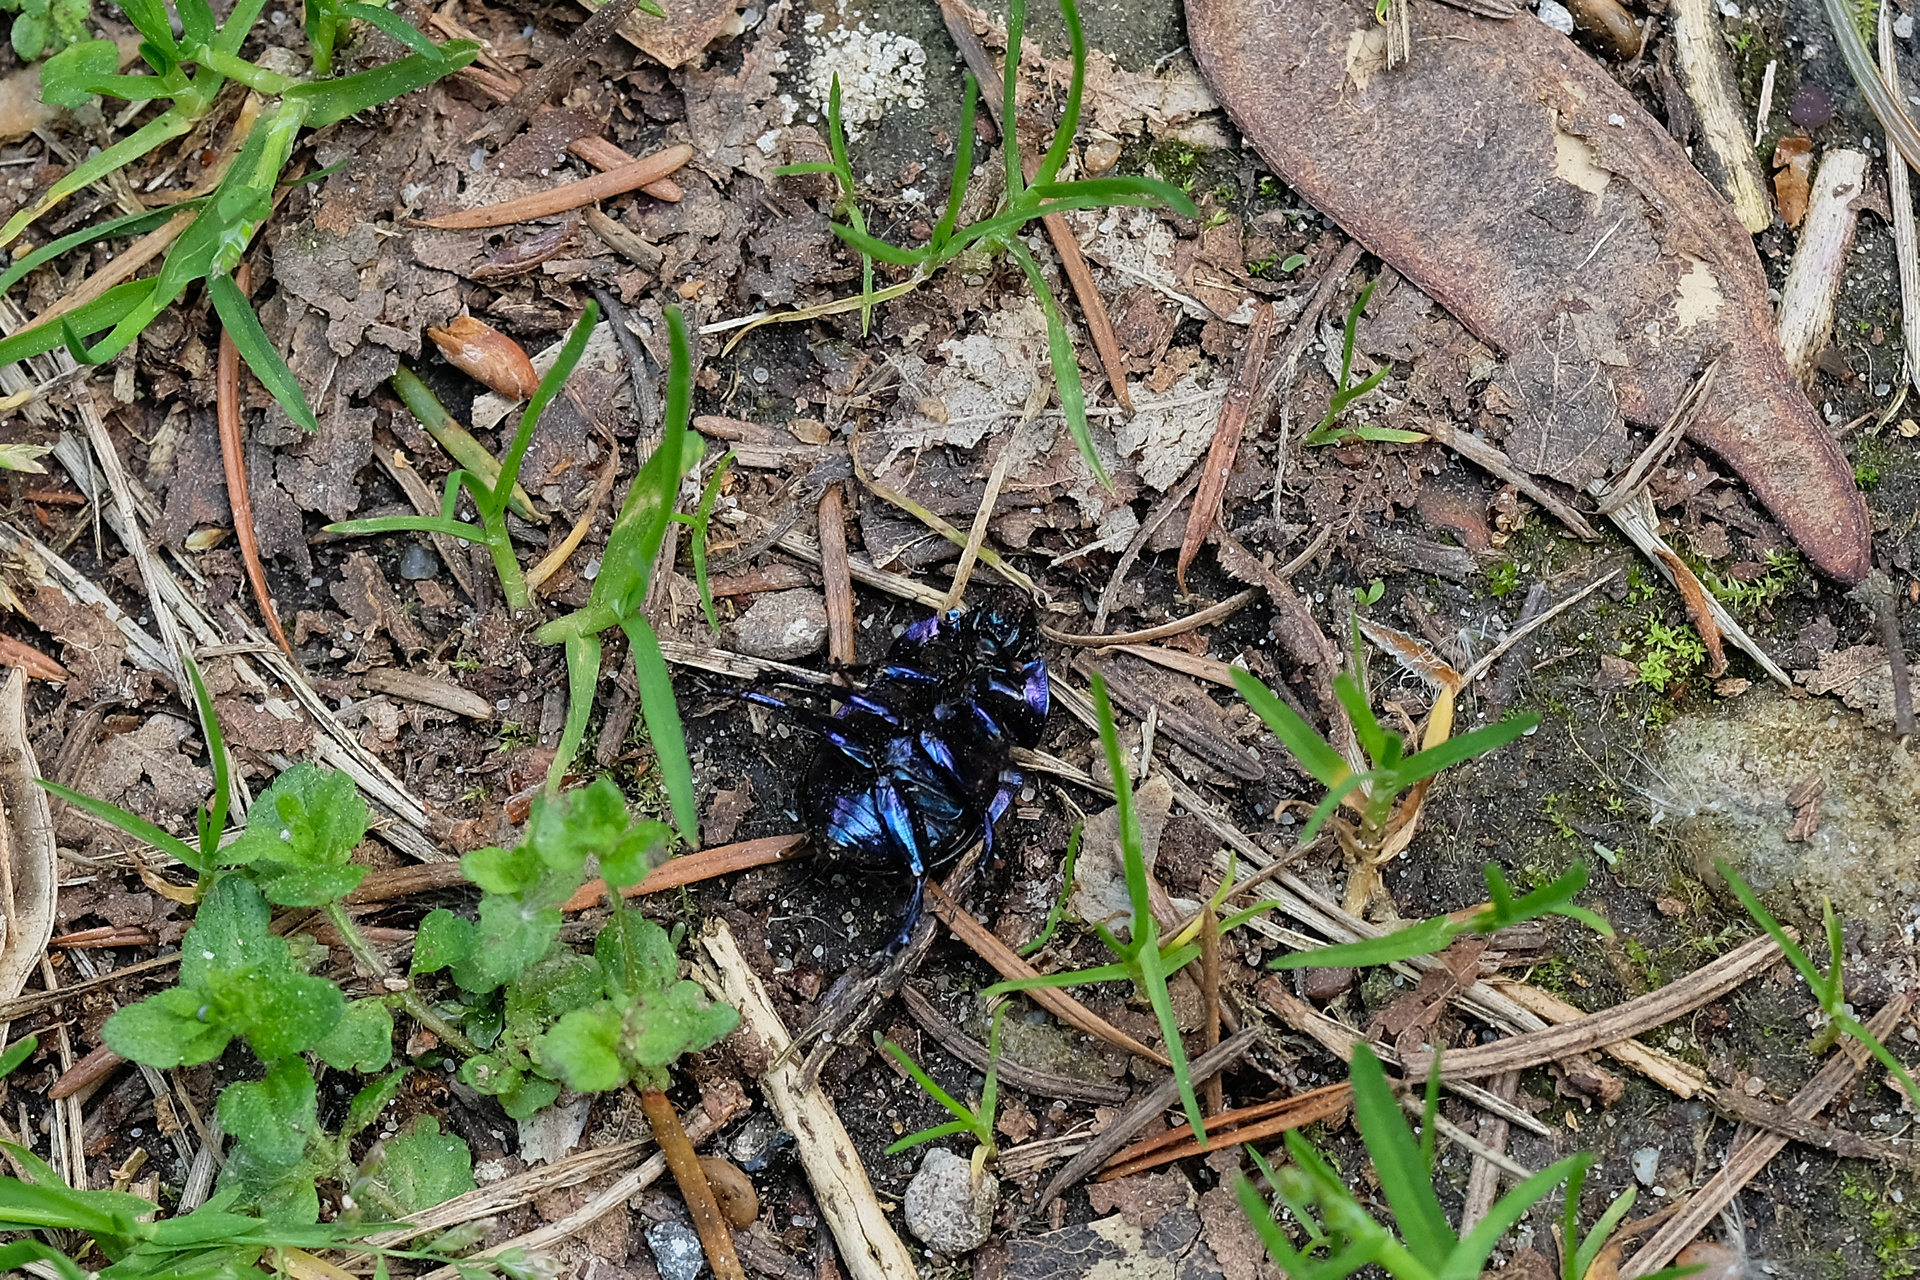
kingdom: Animalia
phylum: Arthropoda
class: Insecta
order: Coleoptera
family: Geotrupidae
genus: Anoplotrupes
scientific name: Anoplotrupes stercorosus
